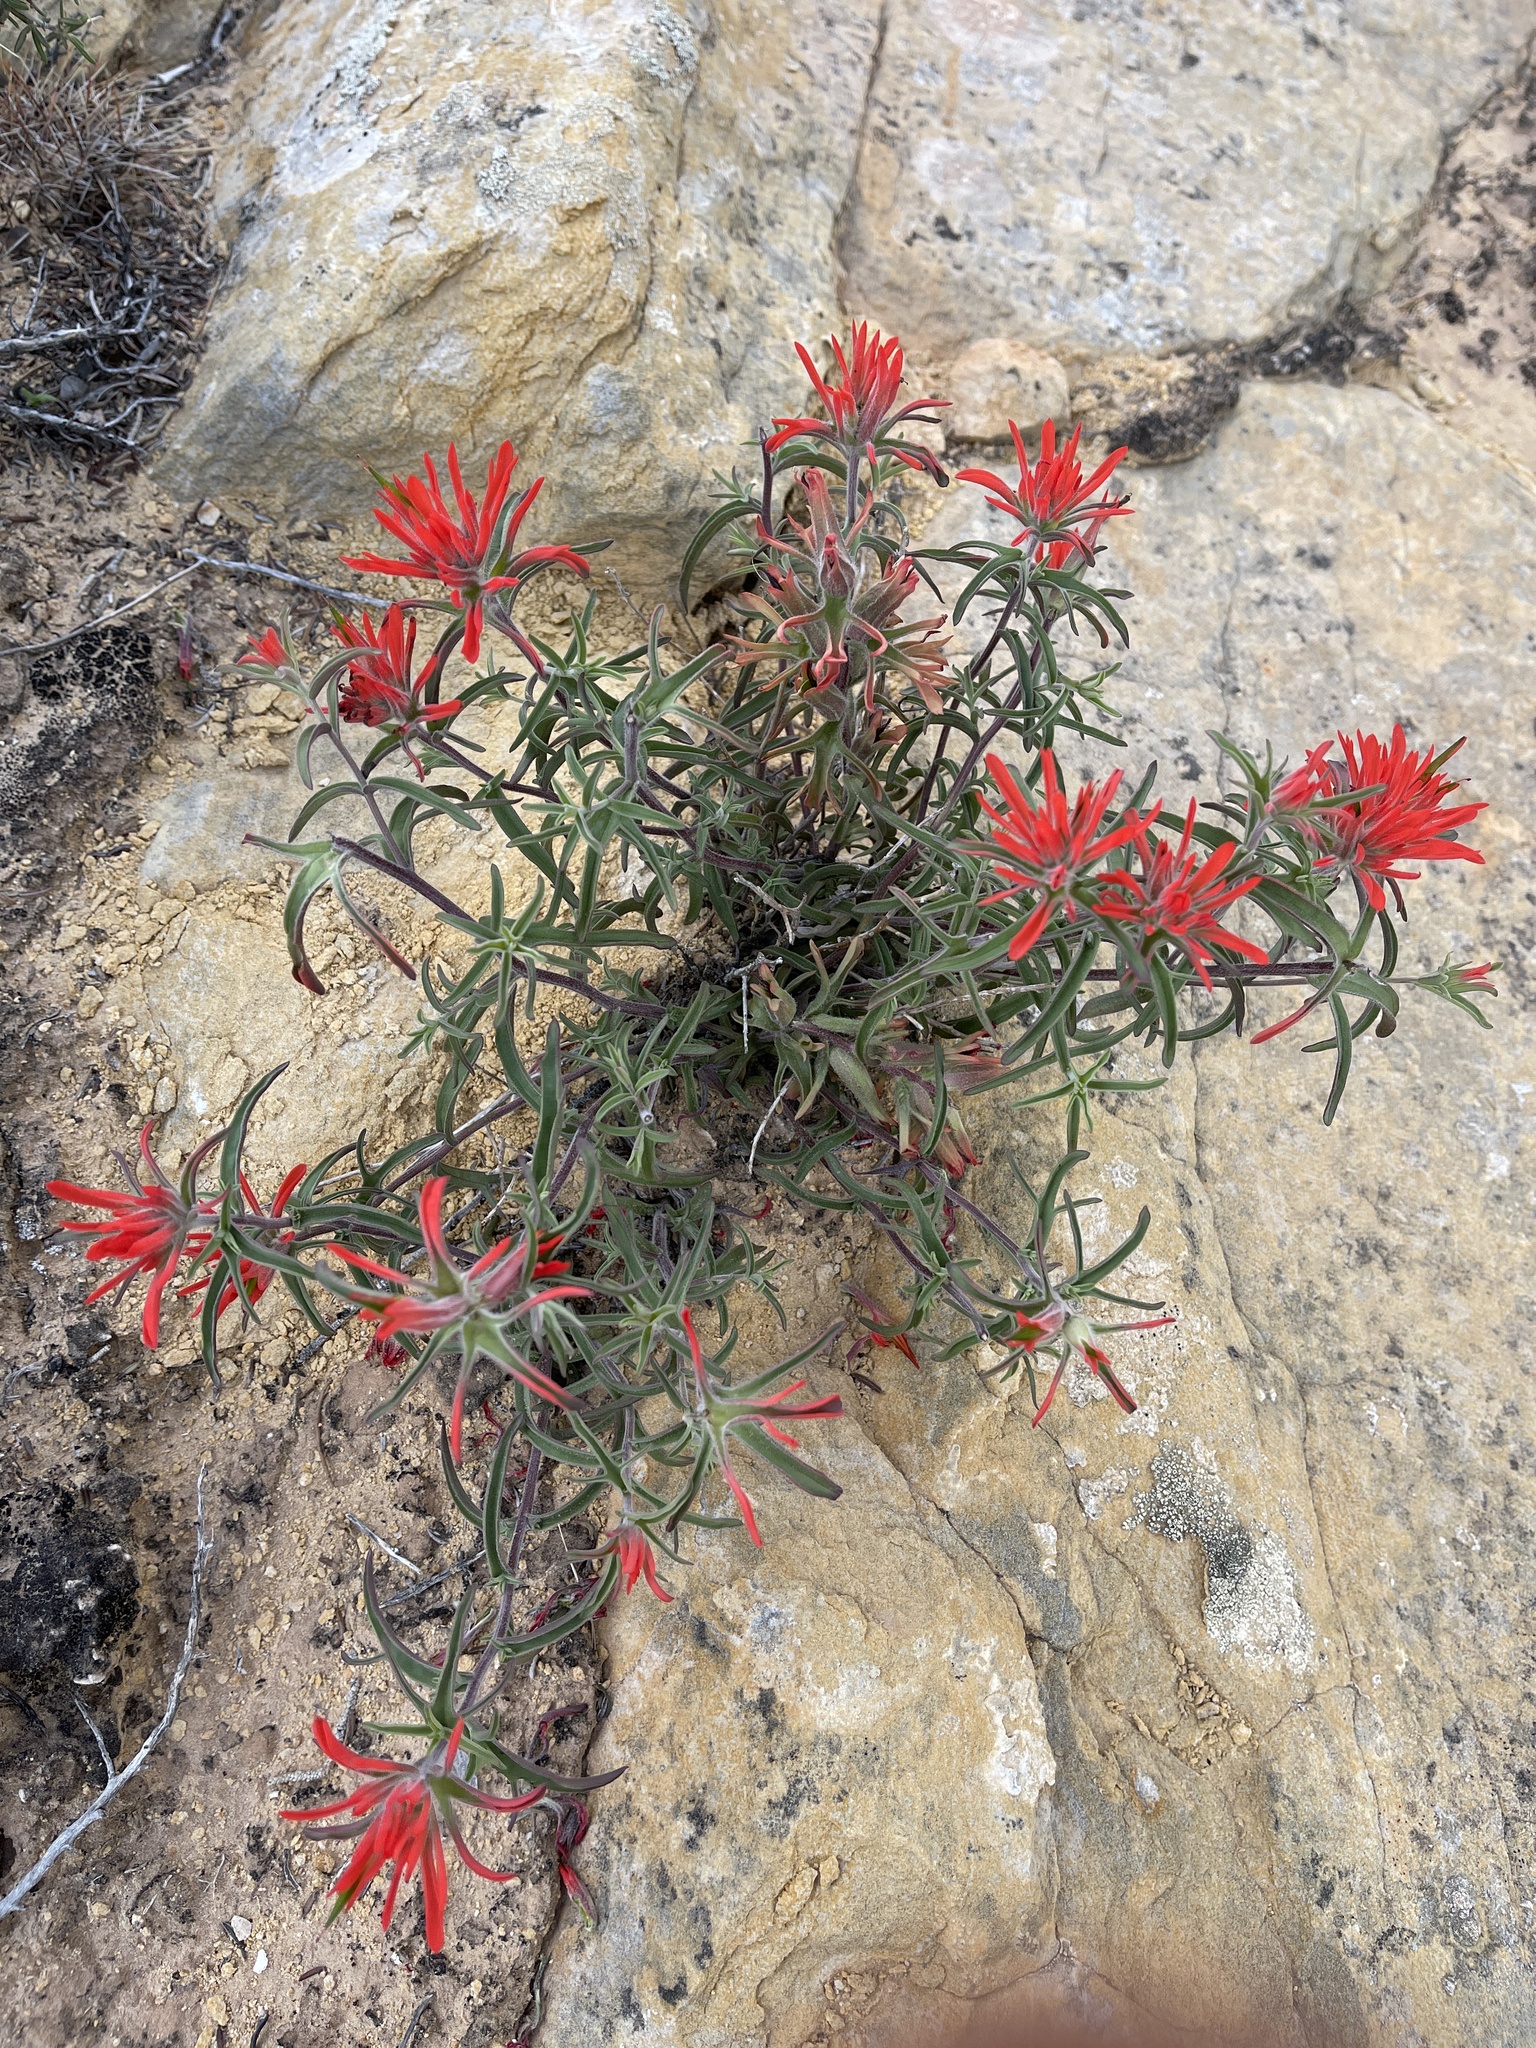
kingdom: Plantae
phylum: Tracheophyta
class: Magnoliopsida
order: Lamiales
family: Orobanchaceae
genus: Castilleja
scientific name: Castilleja scabrida
